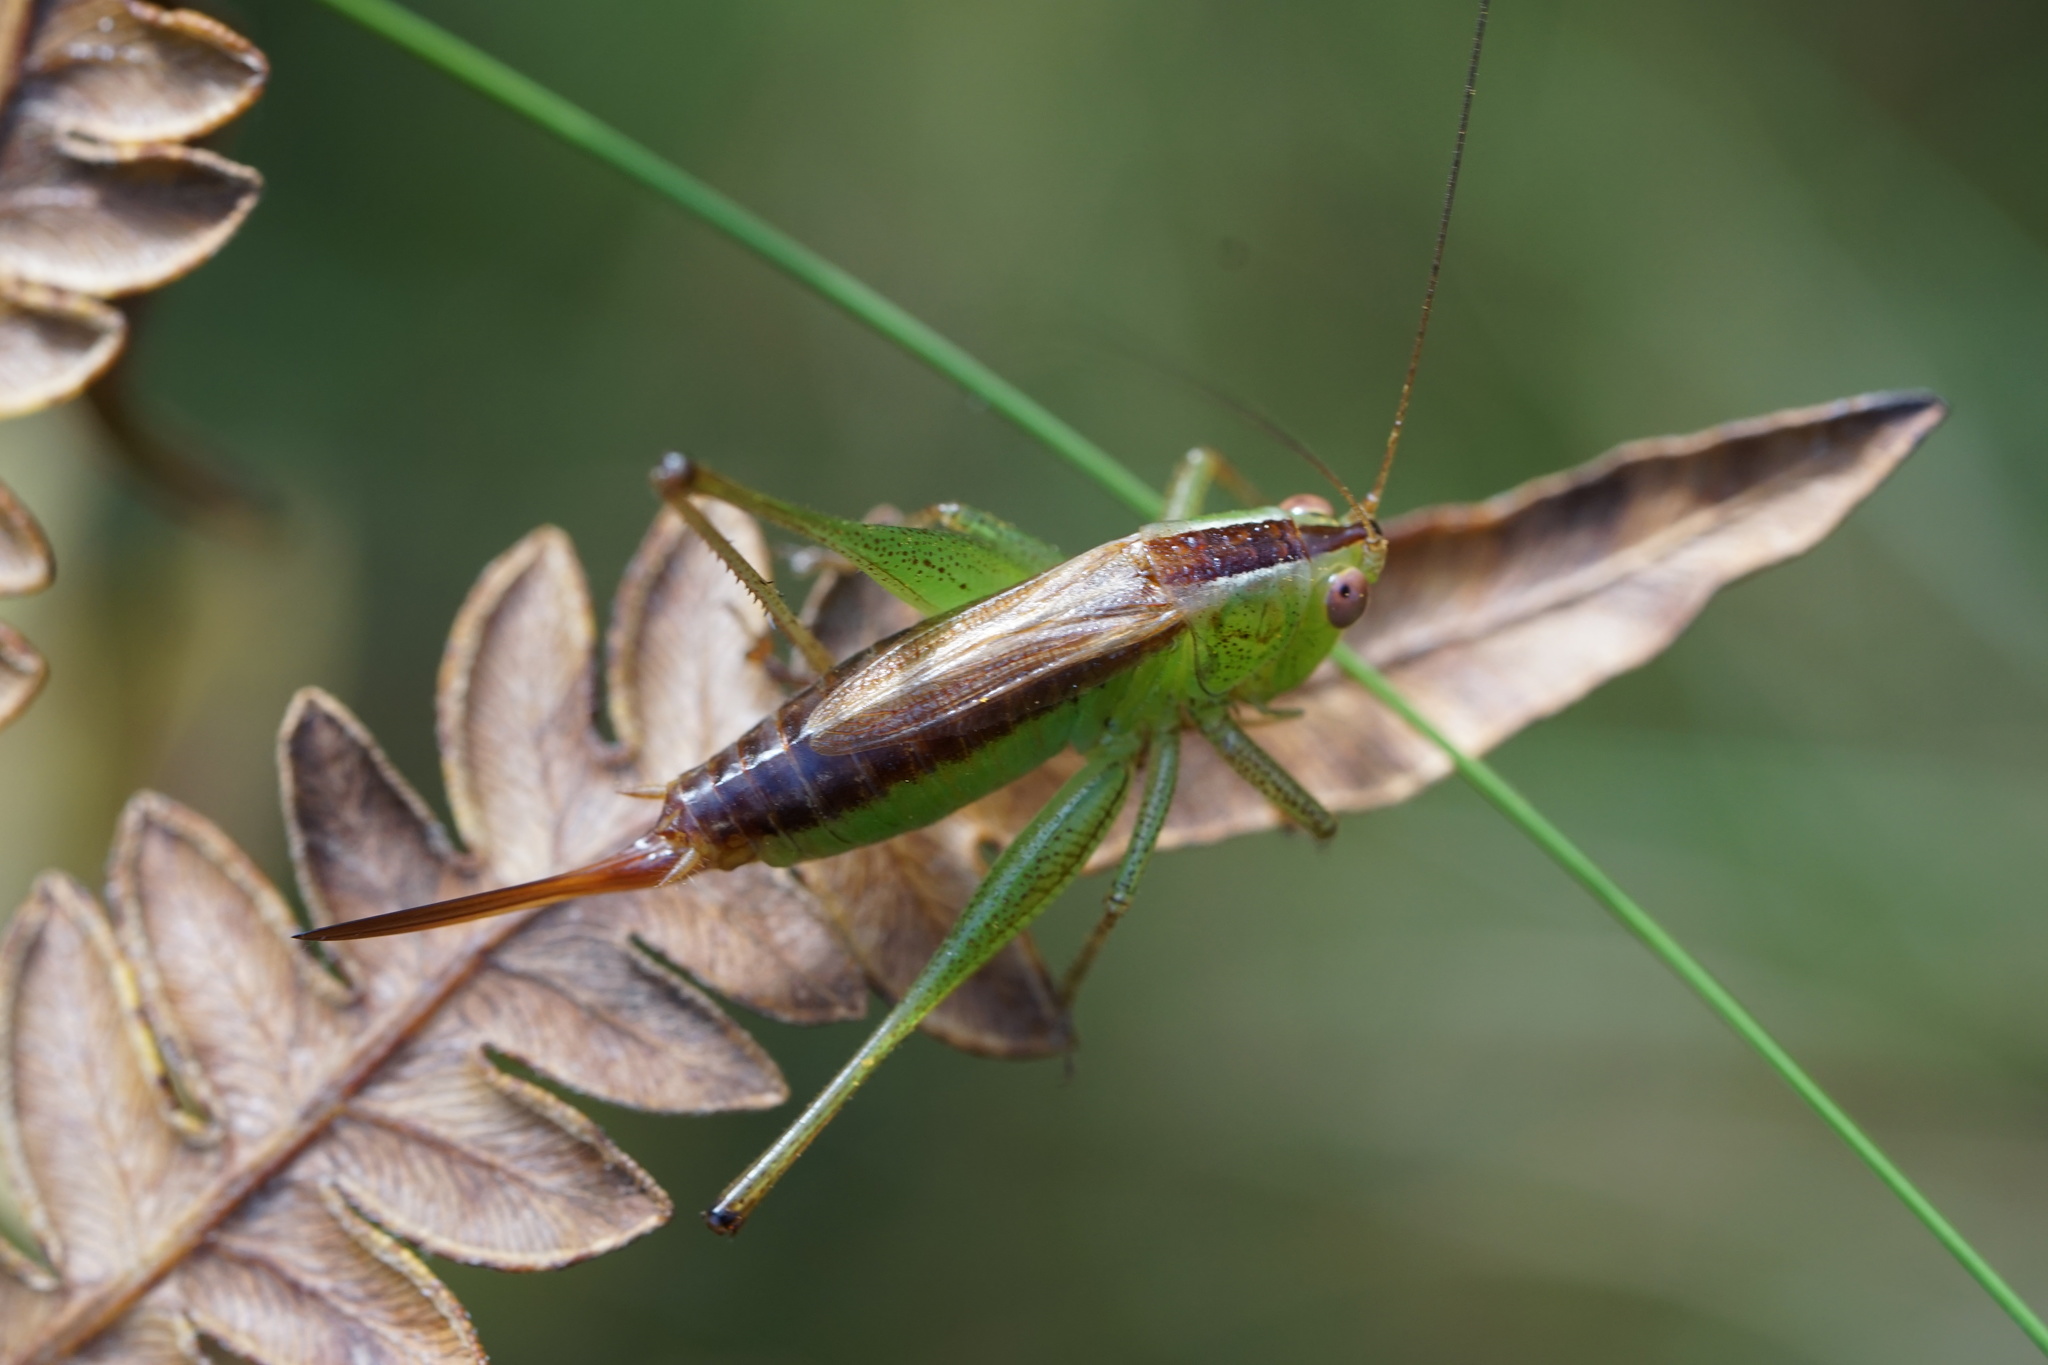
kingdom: Animalia
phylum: Arthropoda
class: Insecta
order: Orthoptera
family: Tettigoniidae
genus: Conocephalus
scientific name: Conocephalus brevipennis
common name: Short-winged meadow katydid
